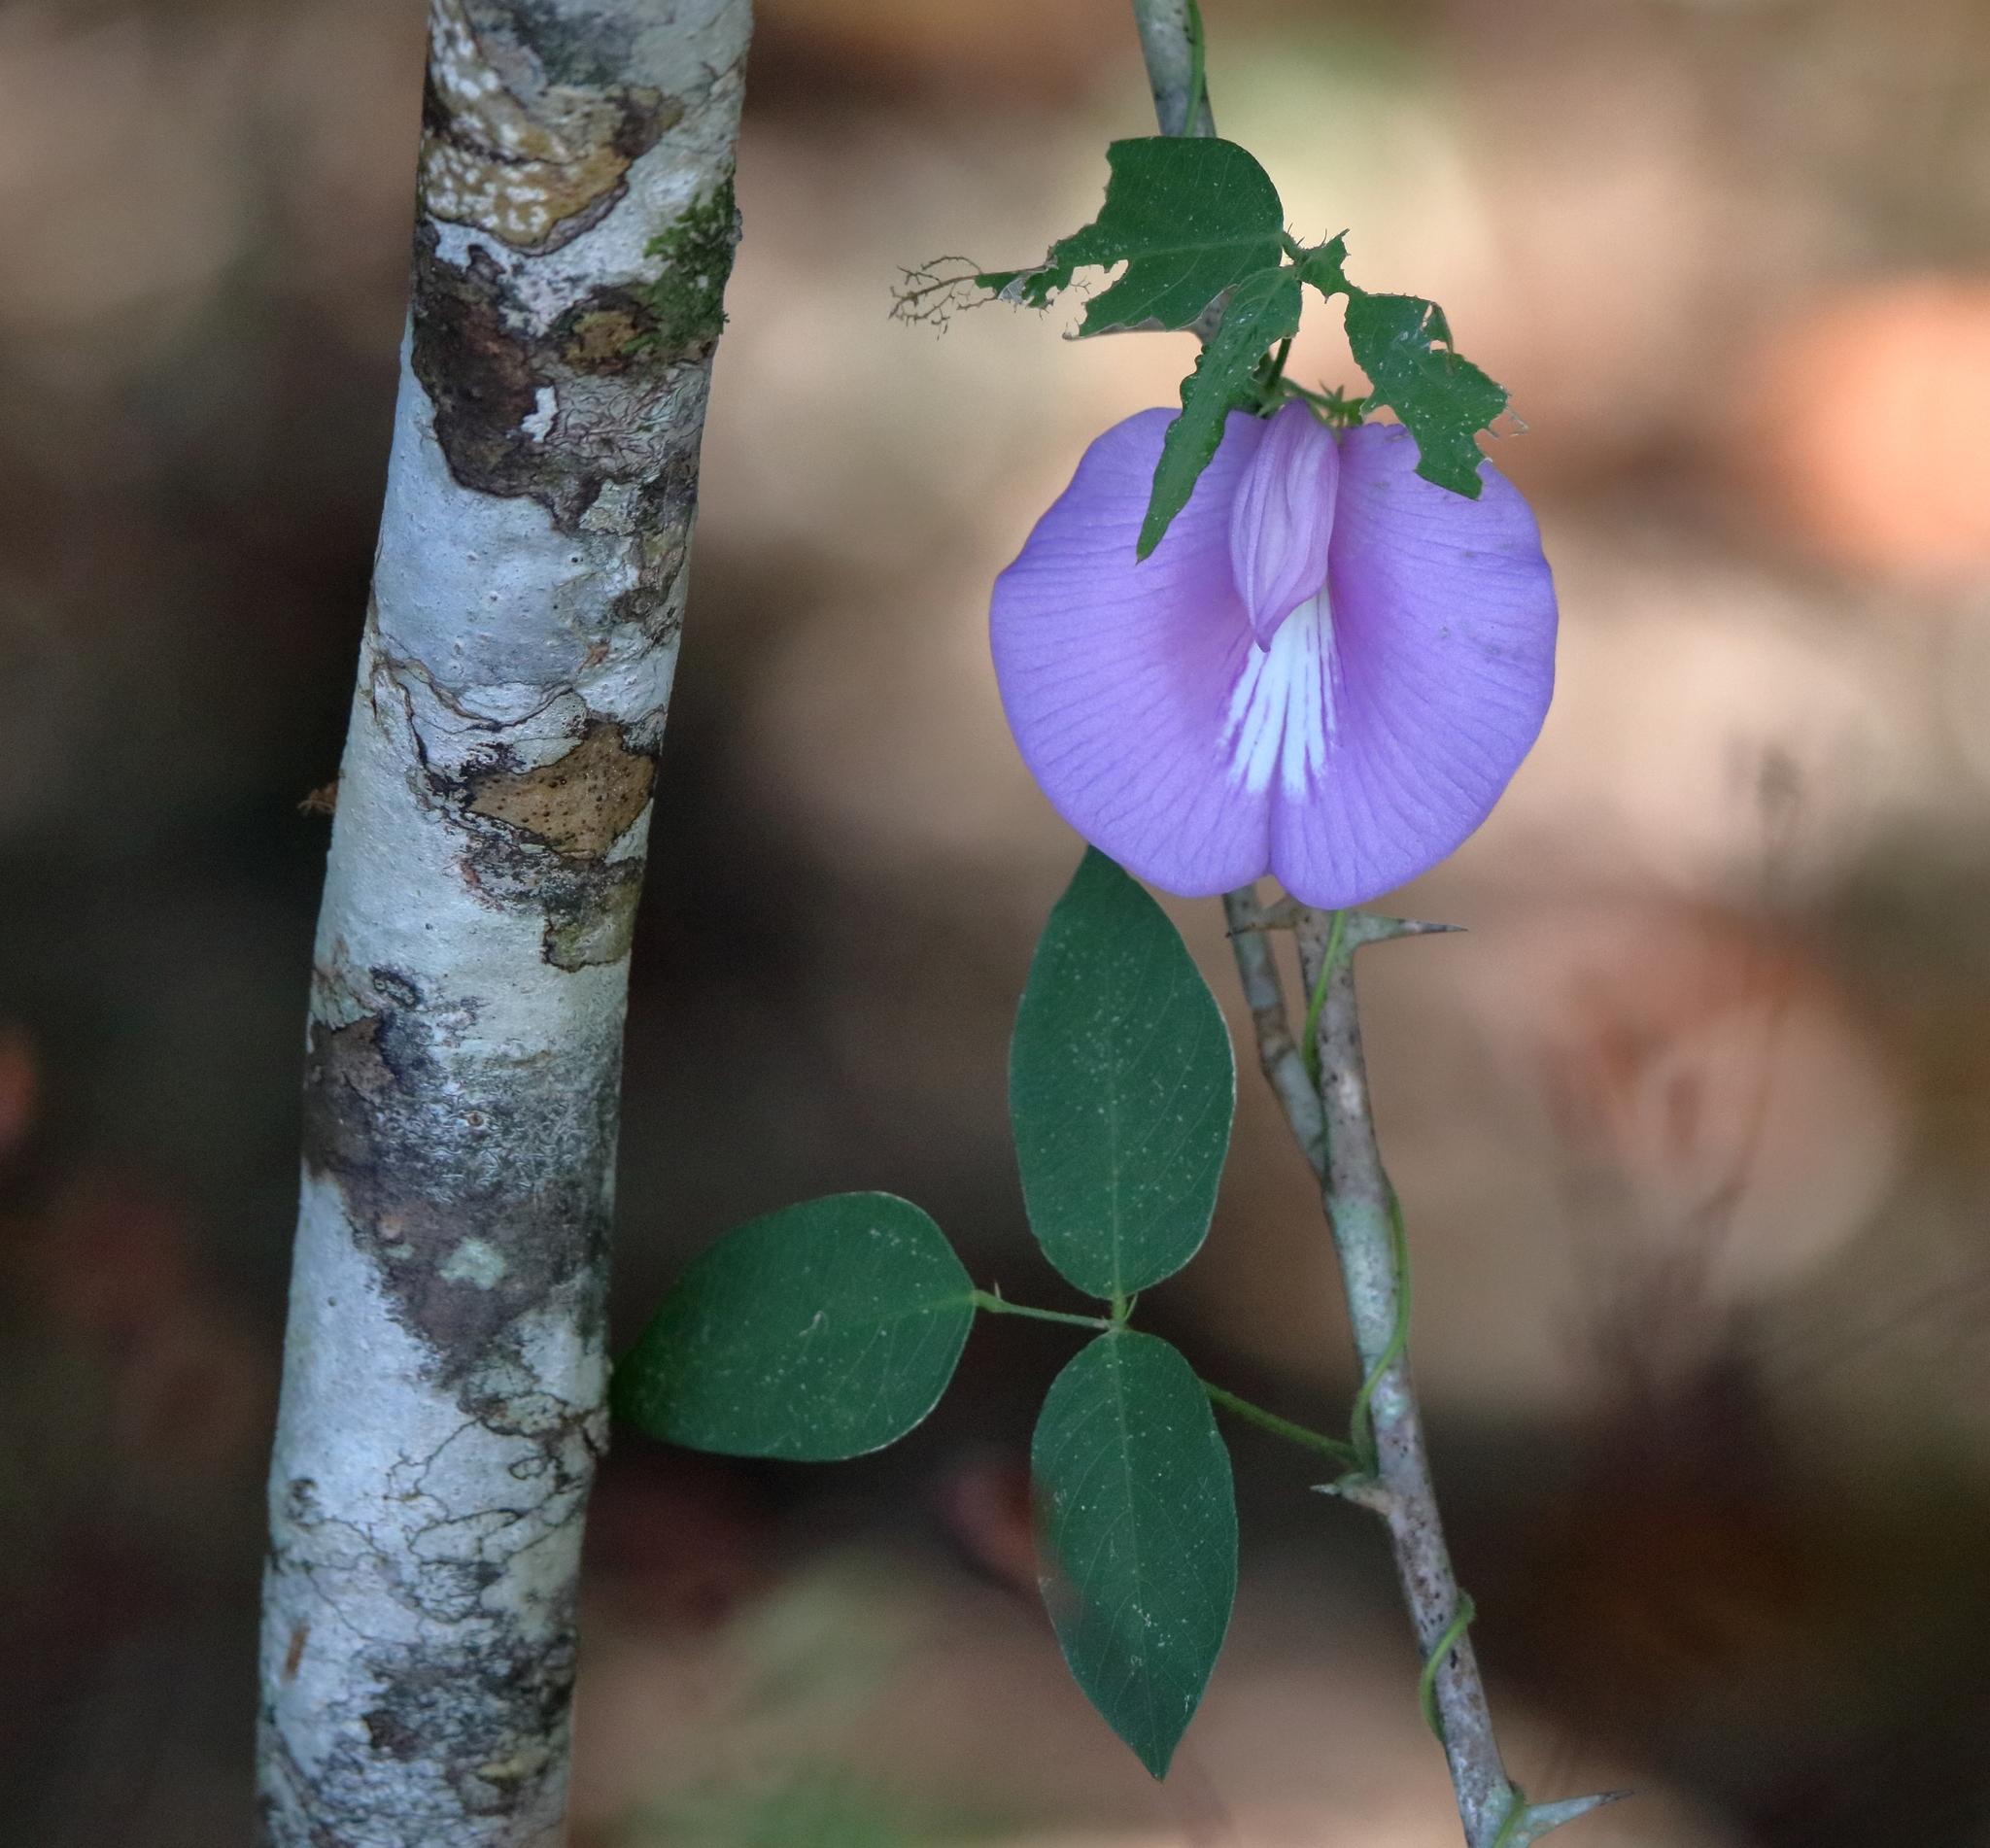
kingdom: Plantae
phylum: Tracheophyta
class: Magnoliopsida
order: Fabales
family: Fabaceae
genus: Centrosema
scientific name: Centrosema virginianum
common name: Butterfly-pea
